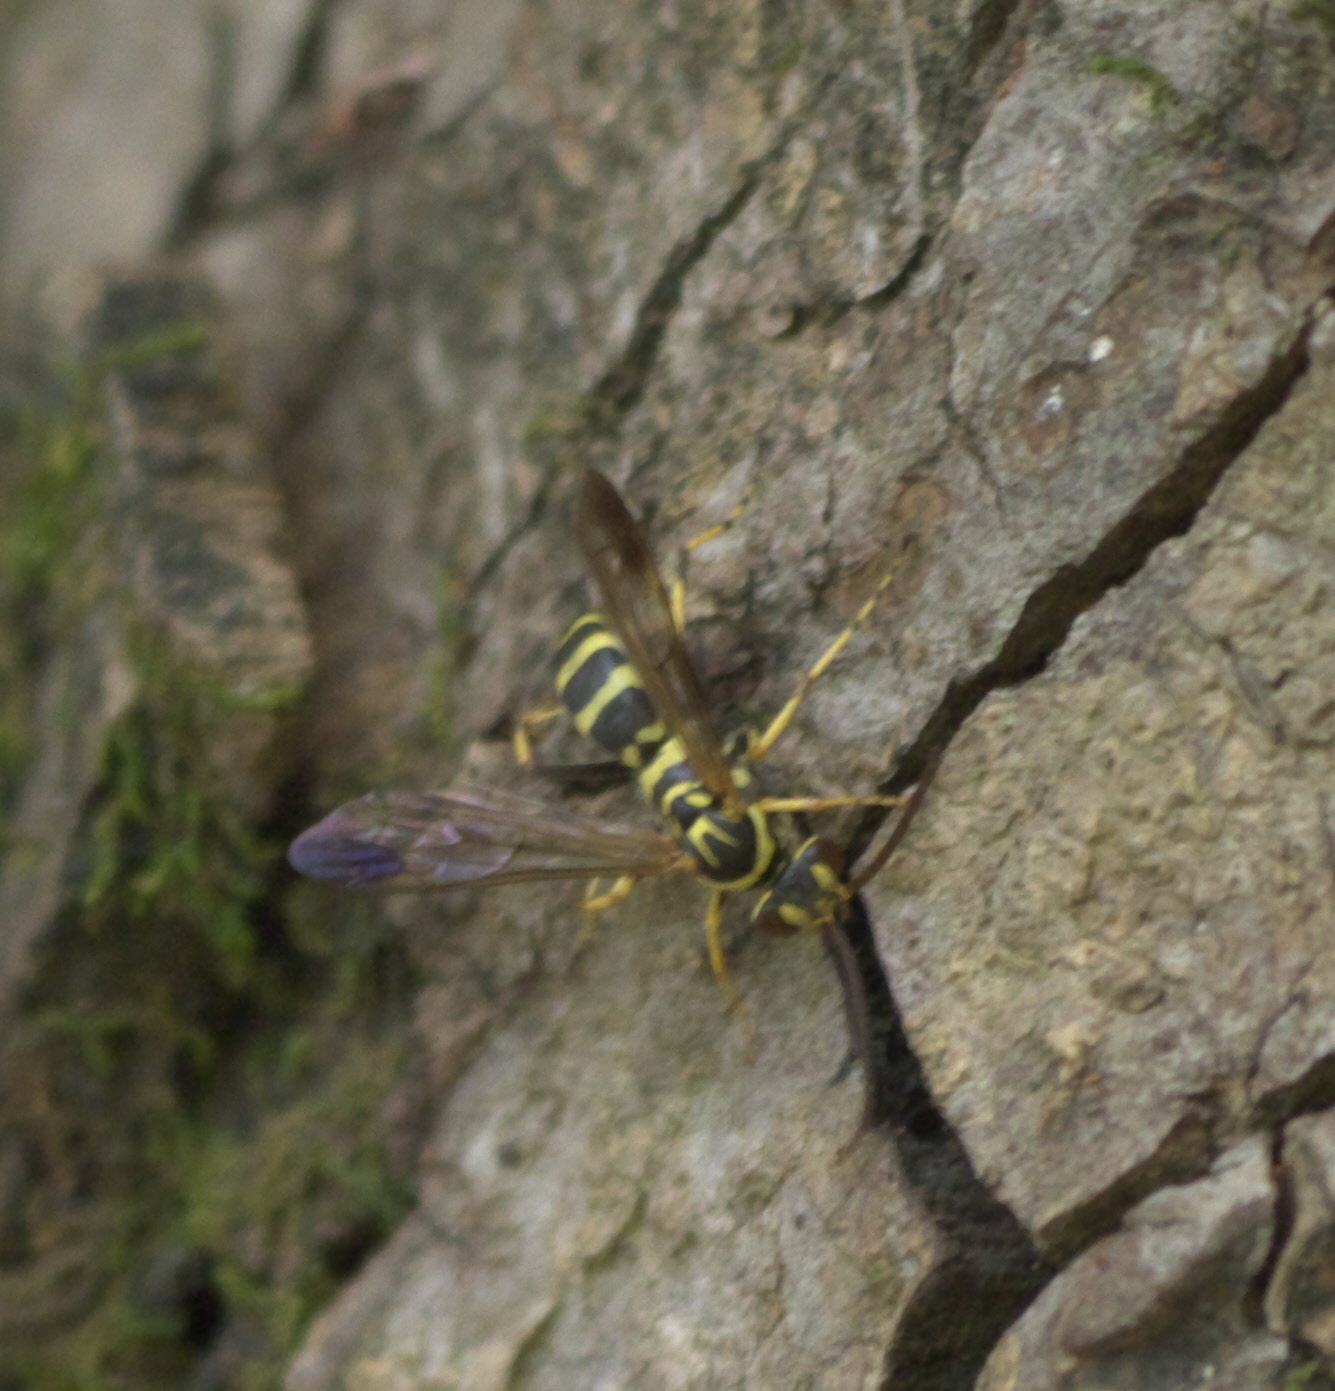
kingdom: Animalia
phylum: Arthropoda
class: Insecta
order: Hymenoptera
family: Pompilidae
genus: Poecilopompilus
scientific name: Poecilopompilus interruptus
